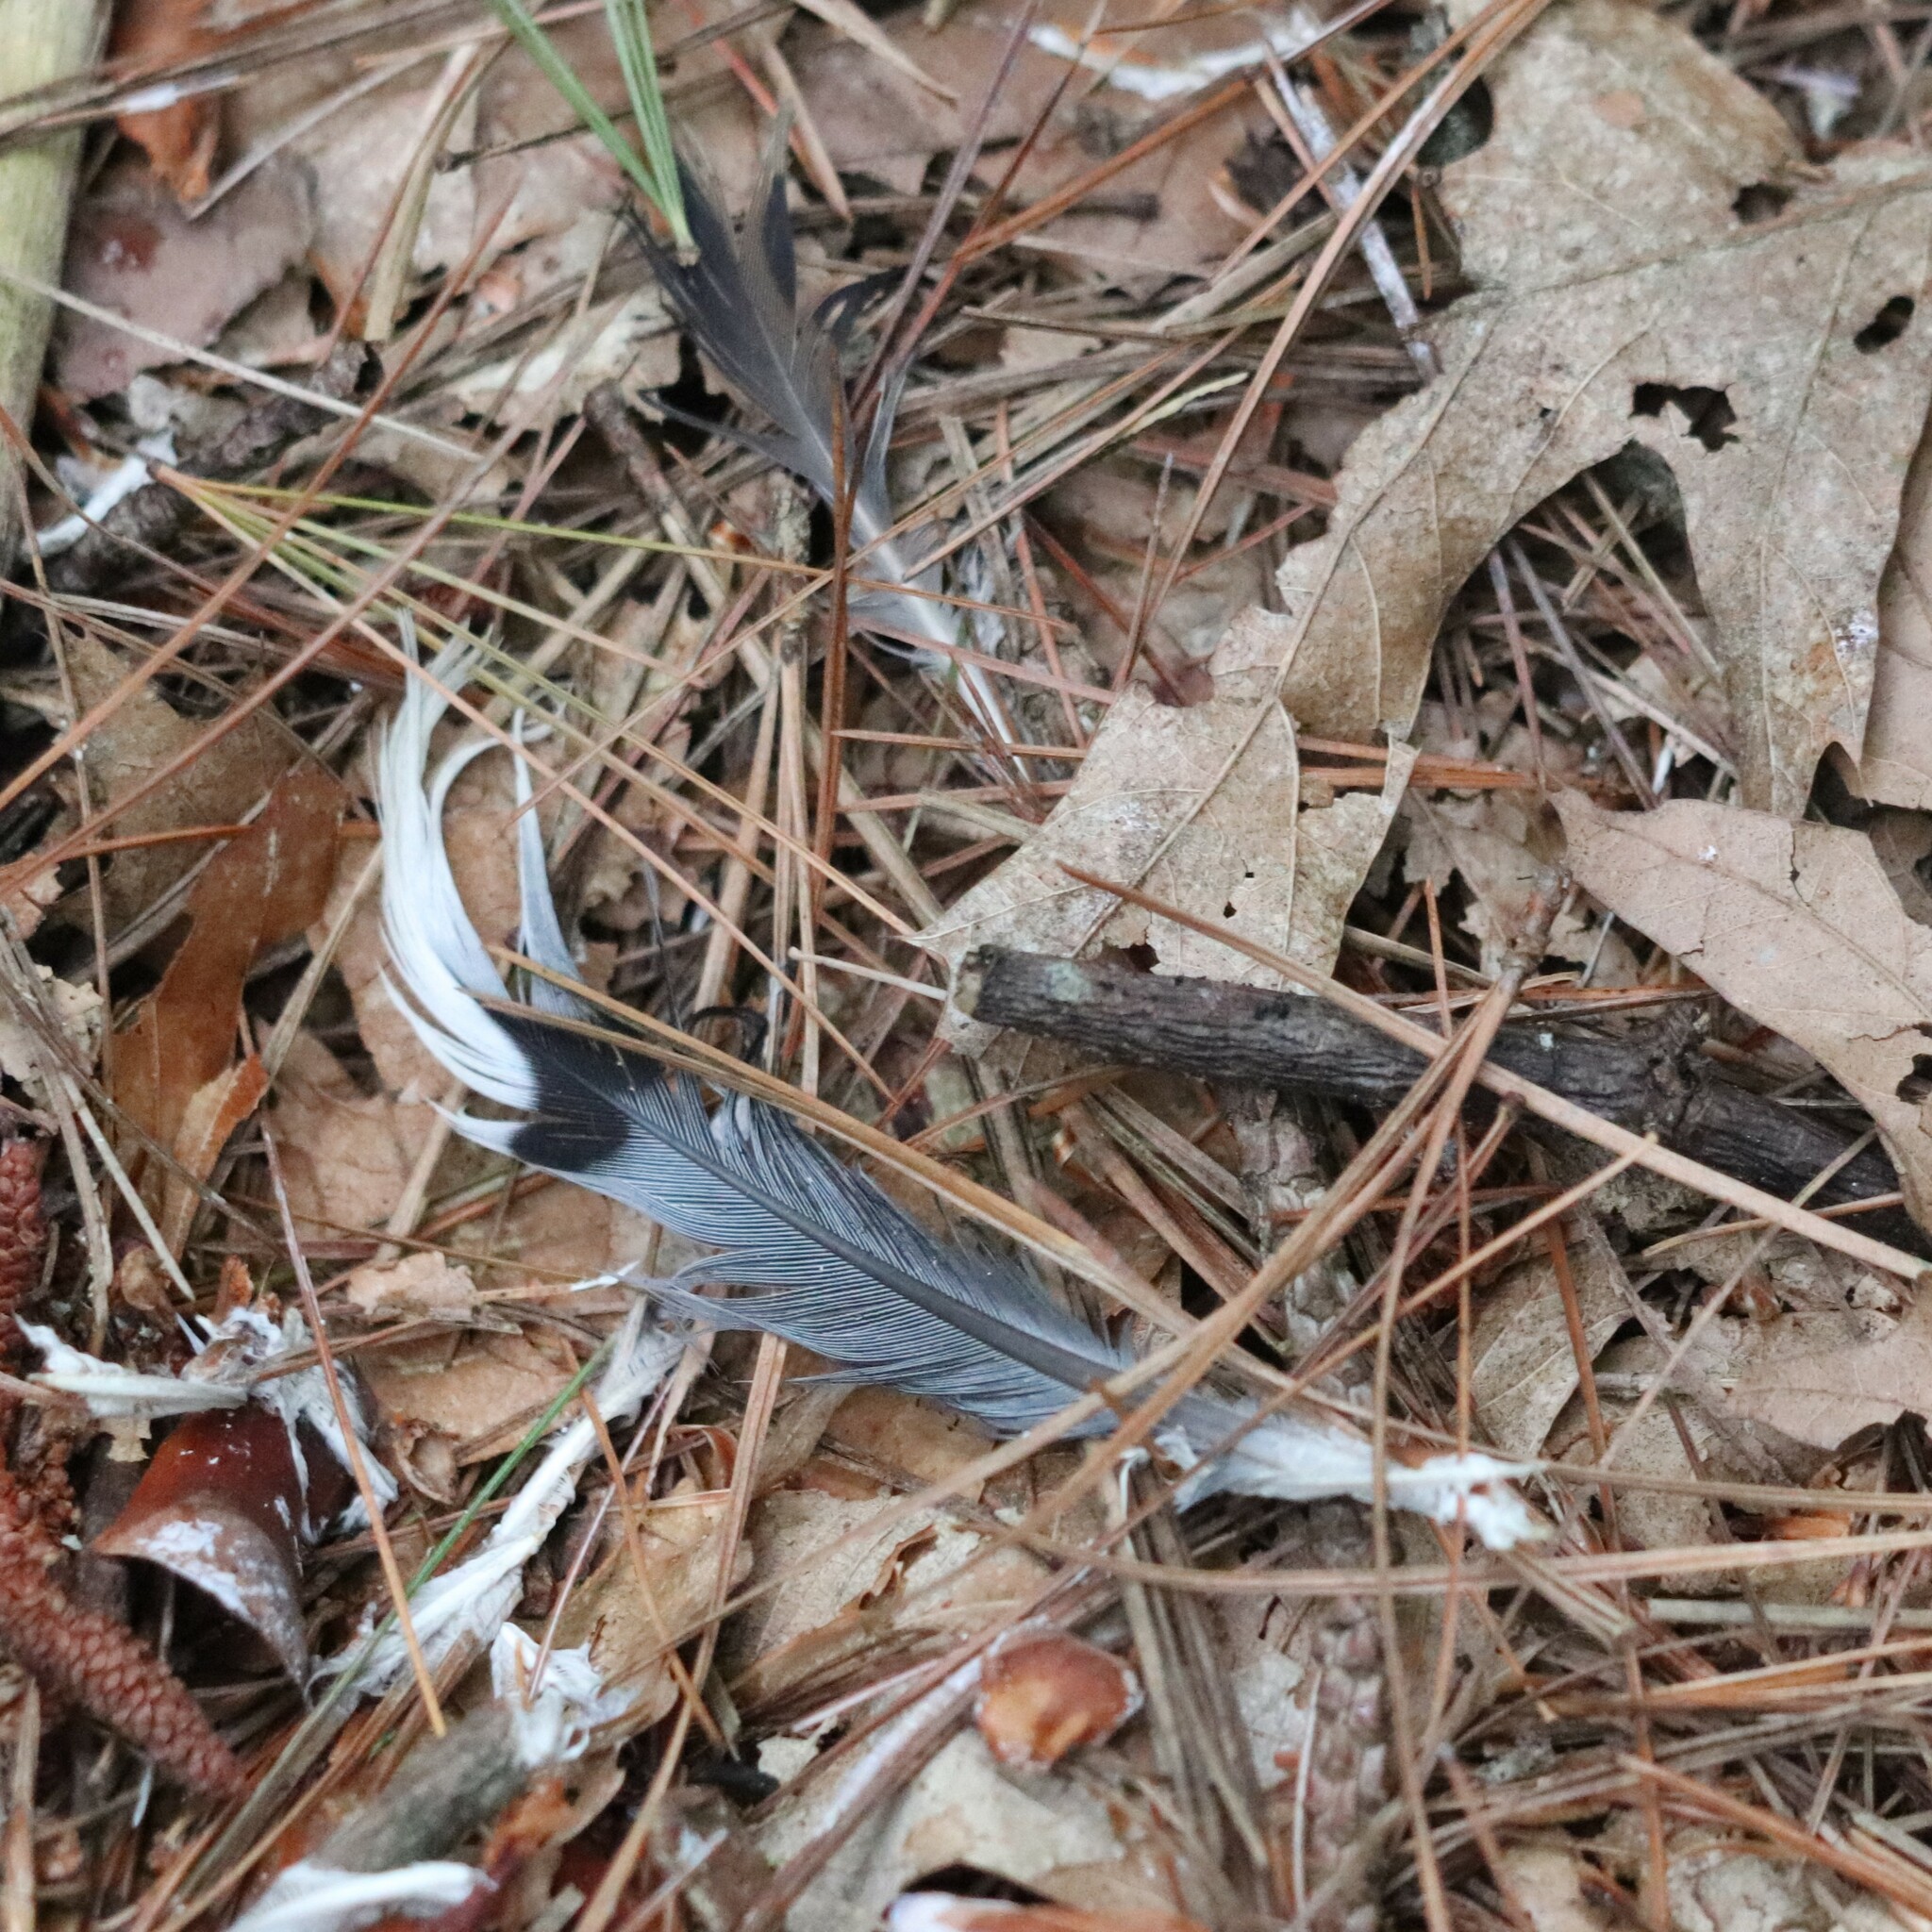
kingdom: Animalia
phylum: Chordata
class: Aves
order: Columbiformes
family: Columbidae
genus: Zenaida
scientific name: Zenaida macroura
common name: Mourning dove
